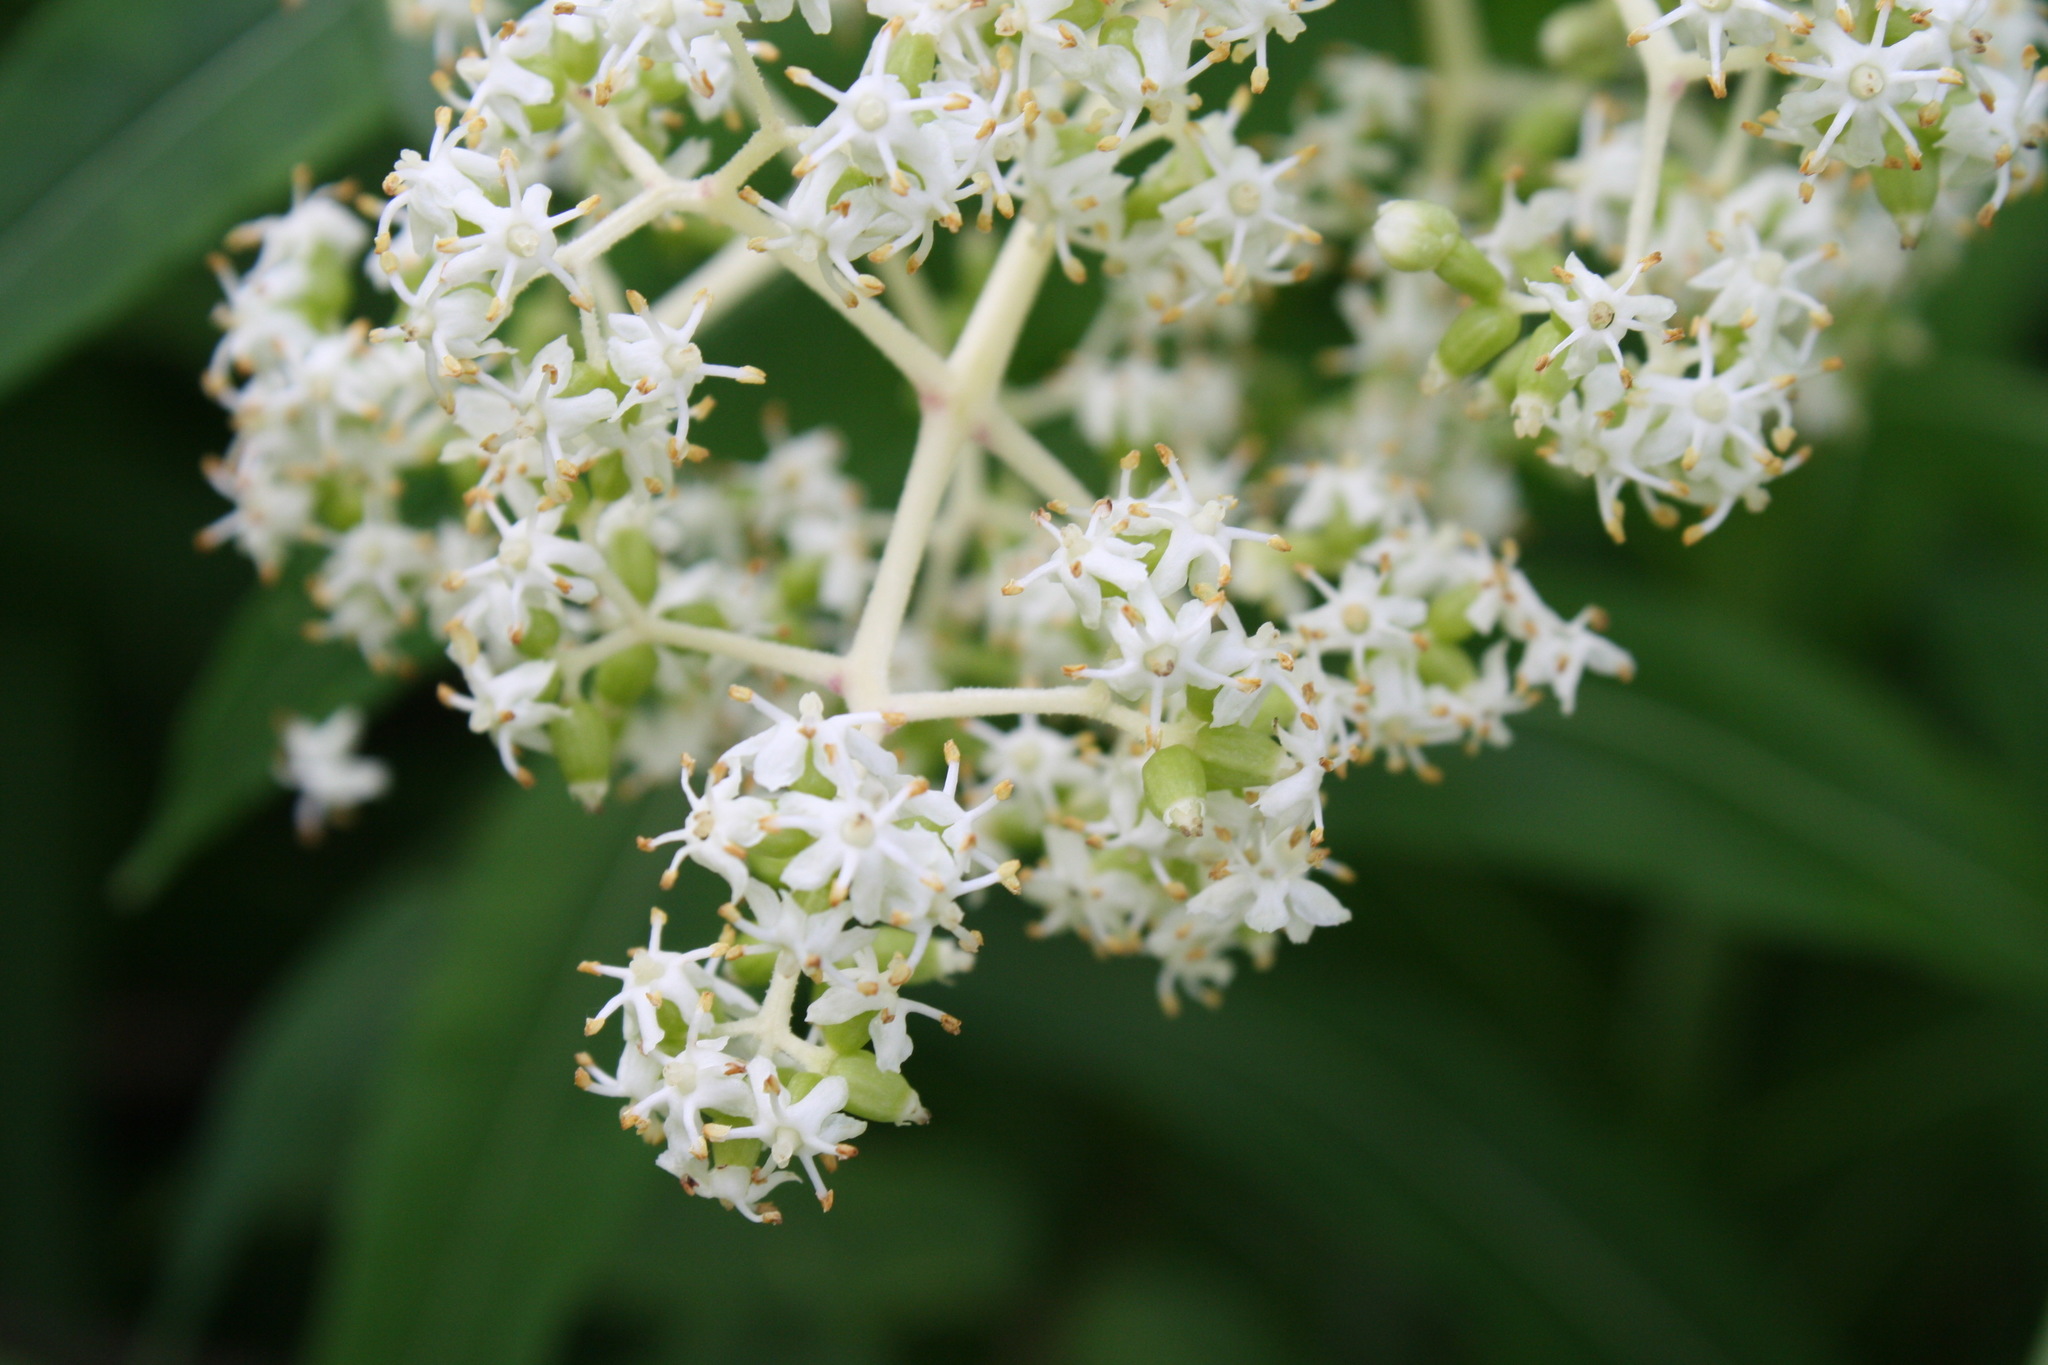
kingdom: Plantae
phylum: Tracheophyta
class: Magnoliopsida
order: Dipsacales
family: Viburnaceae
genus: Sambucus
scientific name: Sambucus racemosa
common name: Red-berried elder
